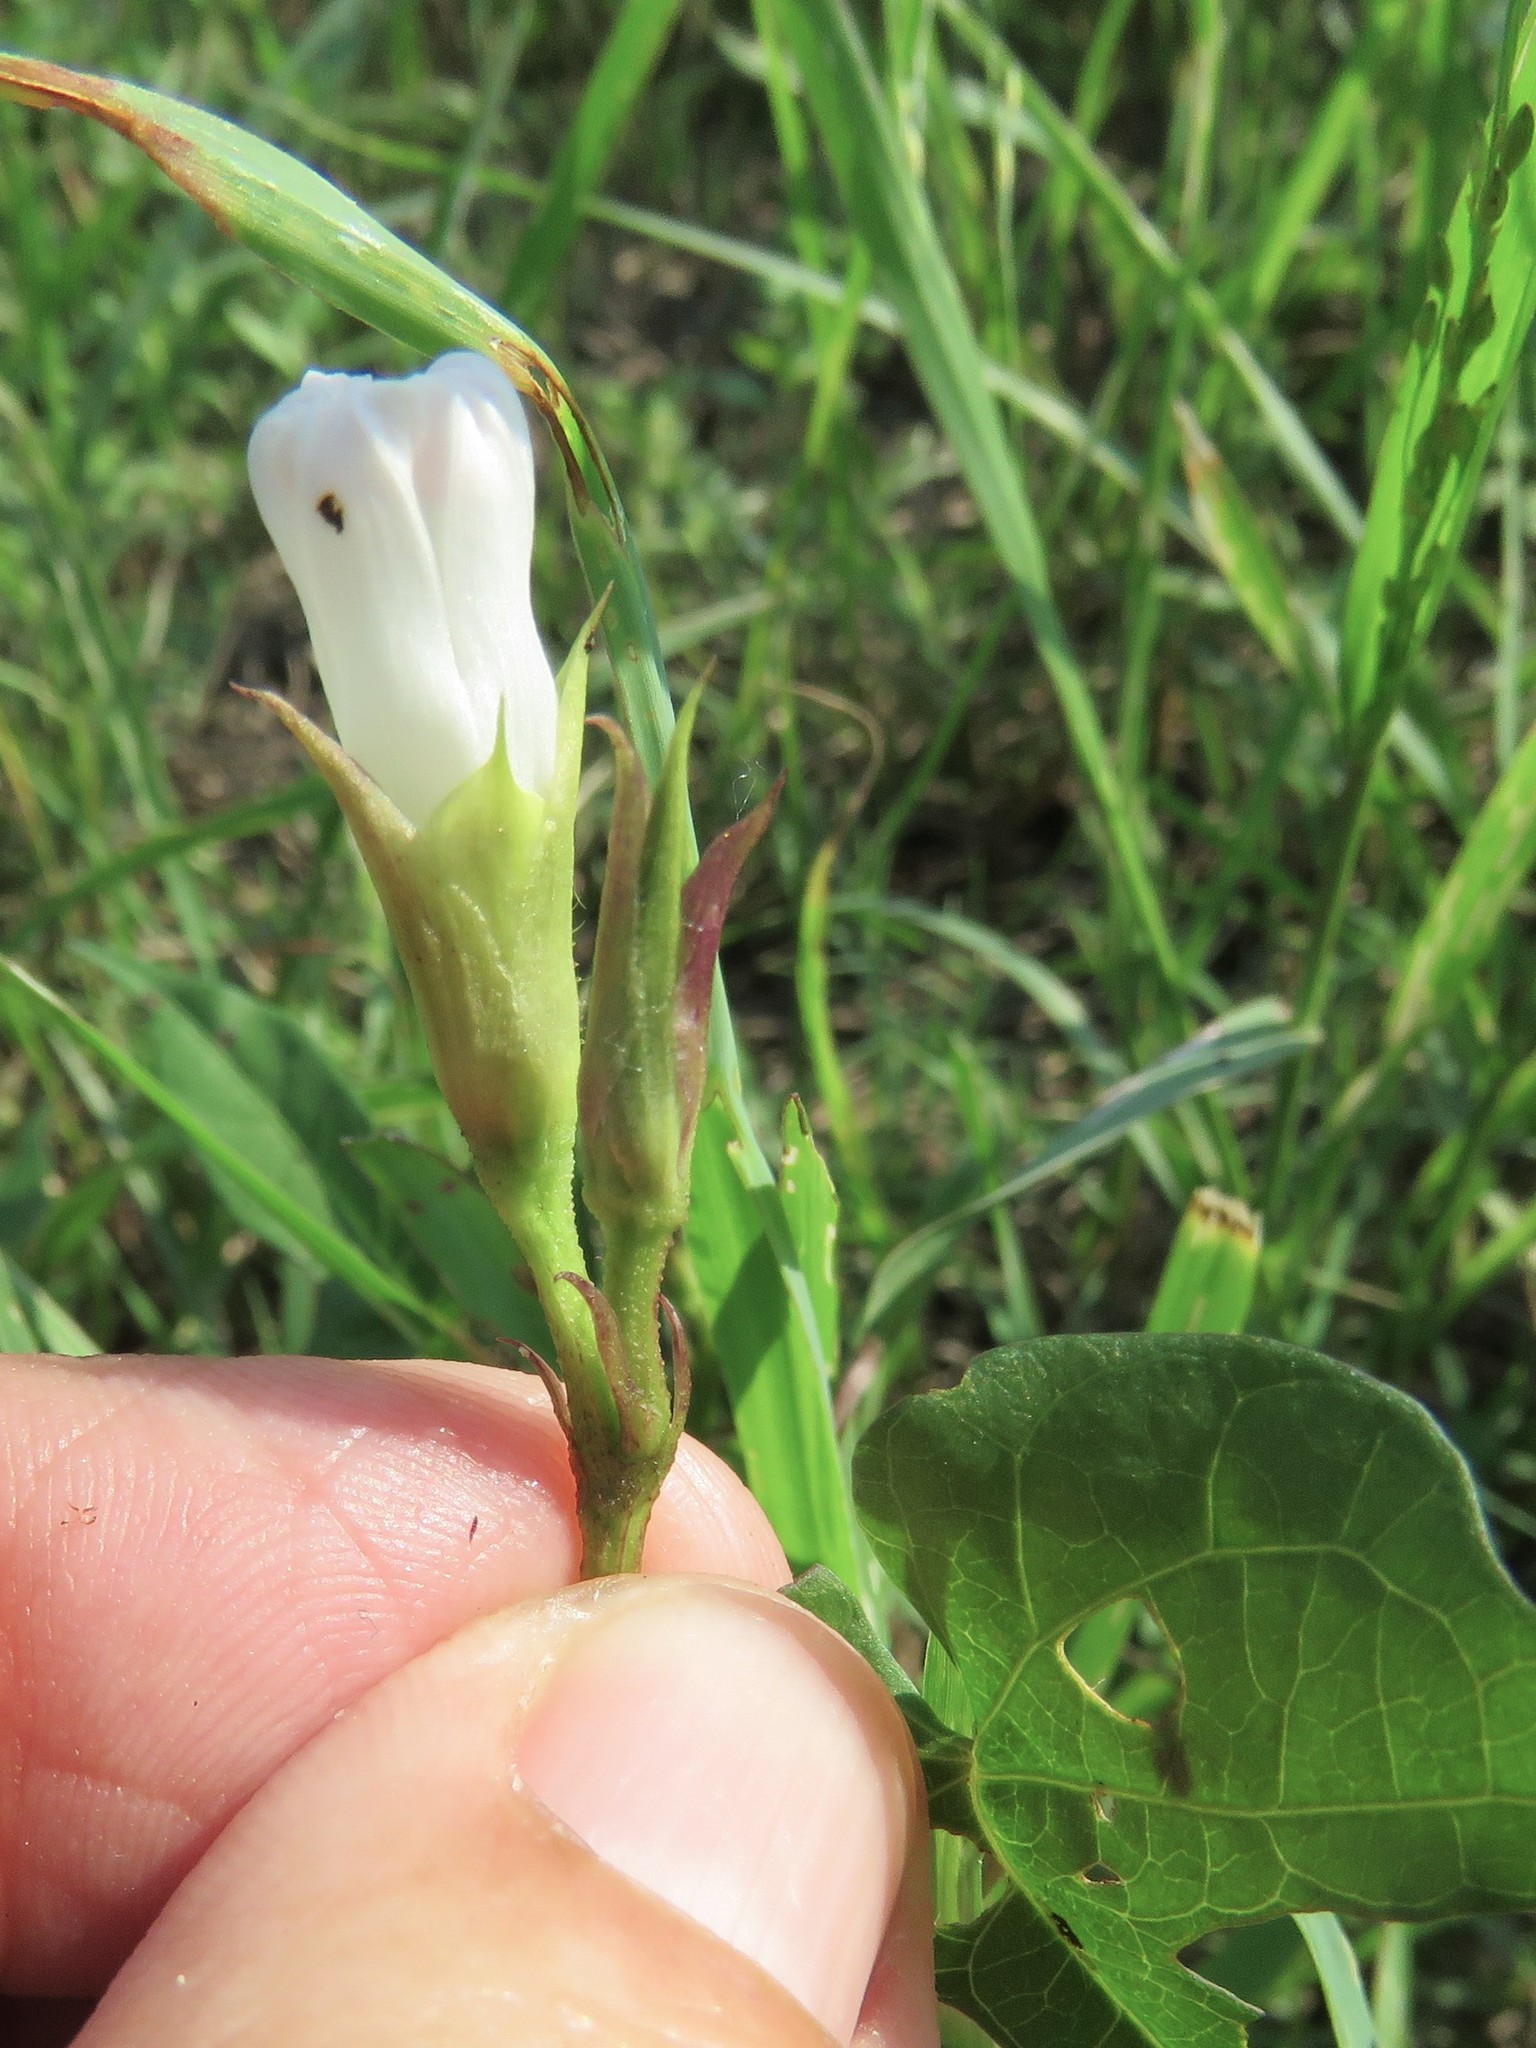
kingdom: Plantae
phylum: Tracheophyta
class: Magnoliopsida
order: Solanales
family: Convolvulaceae
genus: Ipomoea
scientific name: Ipomoea lacunosa
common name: White morning-glory
